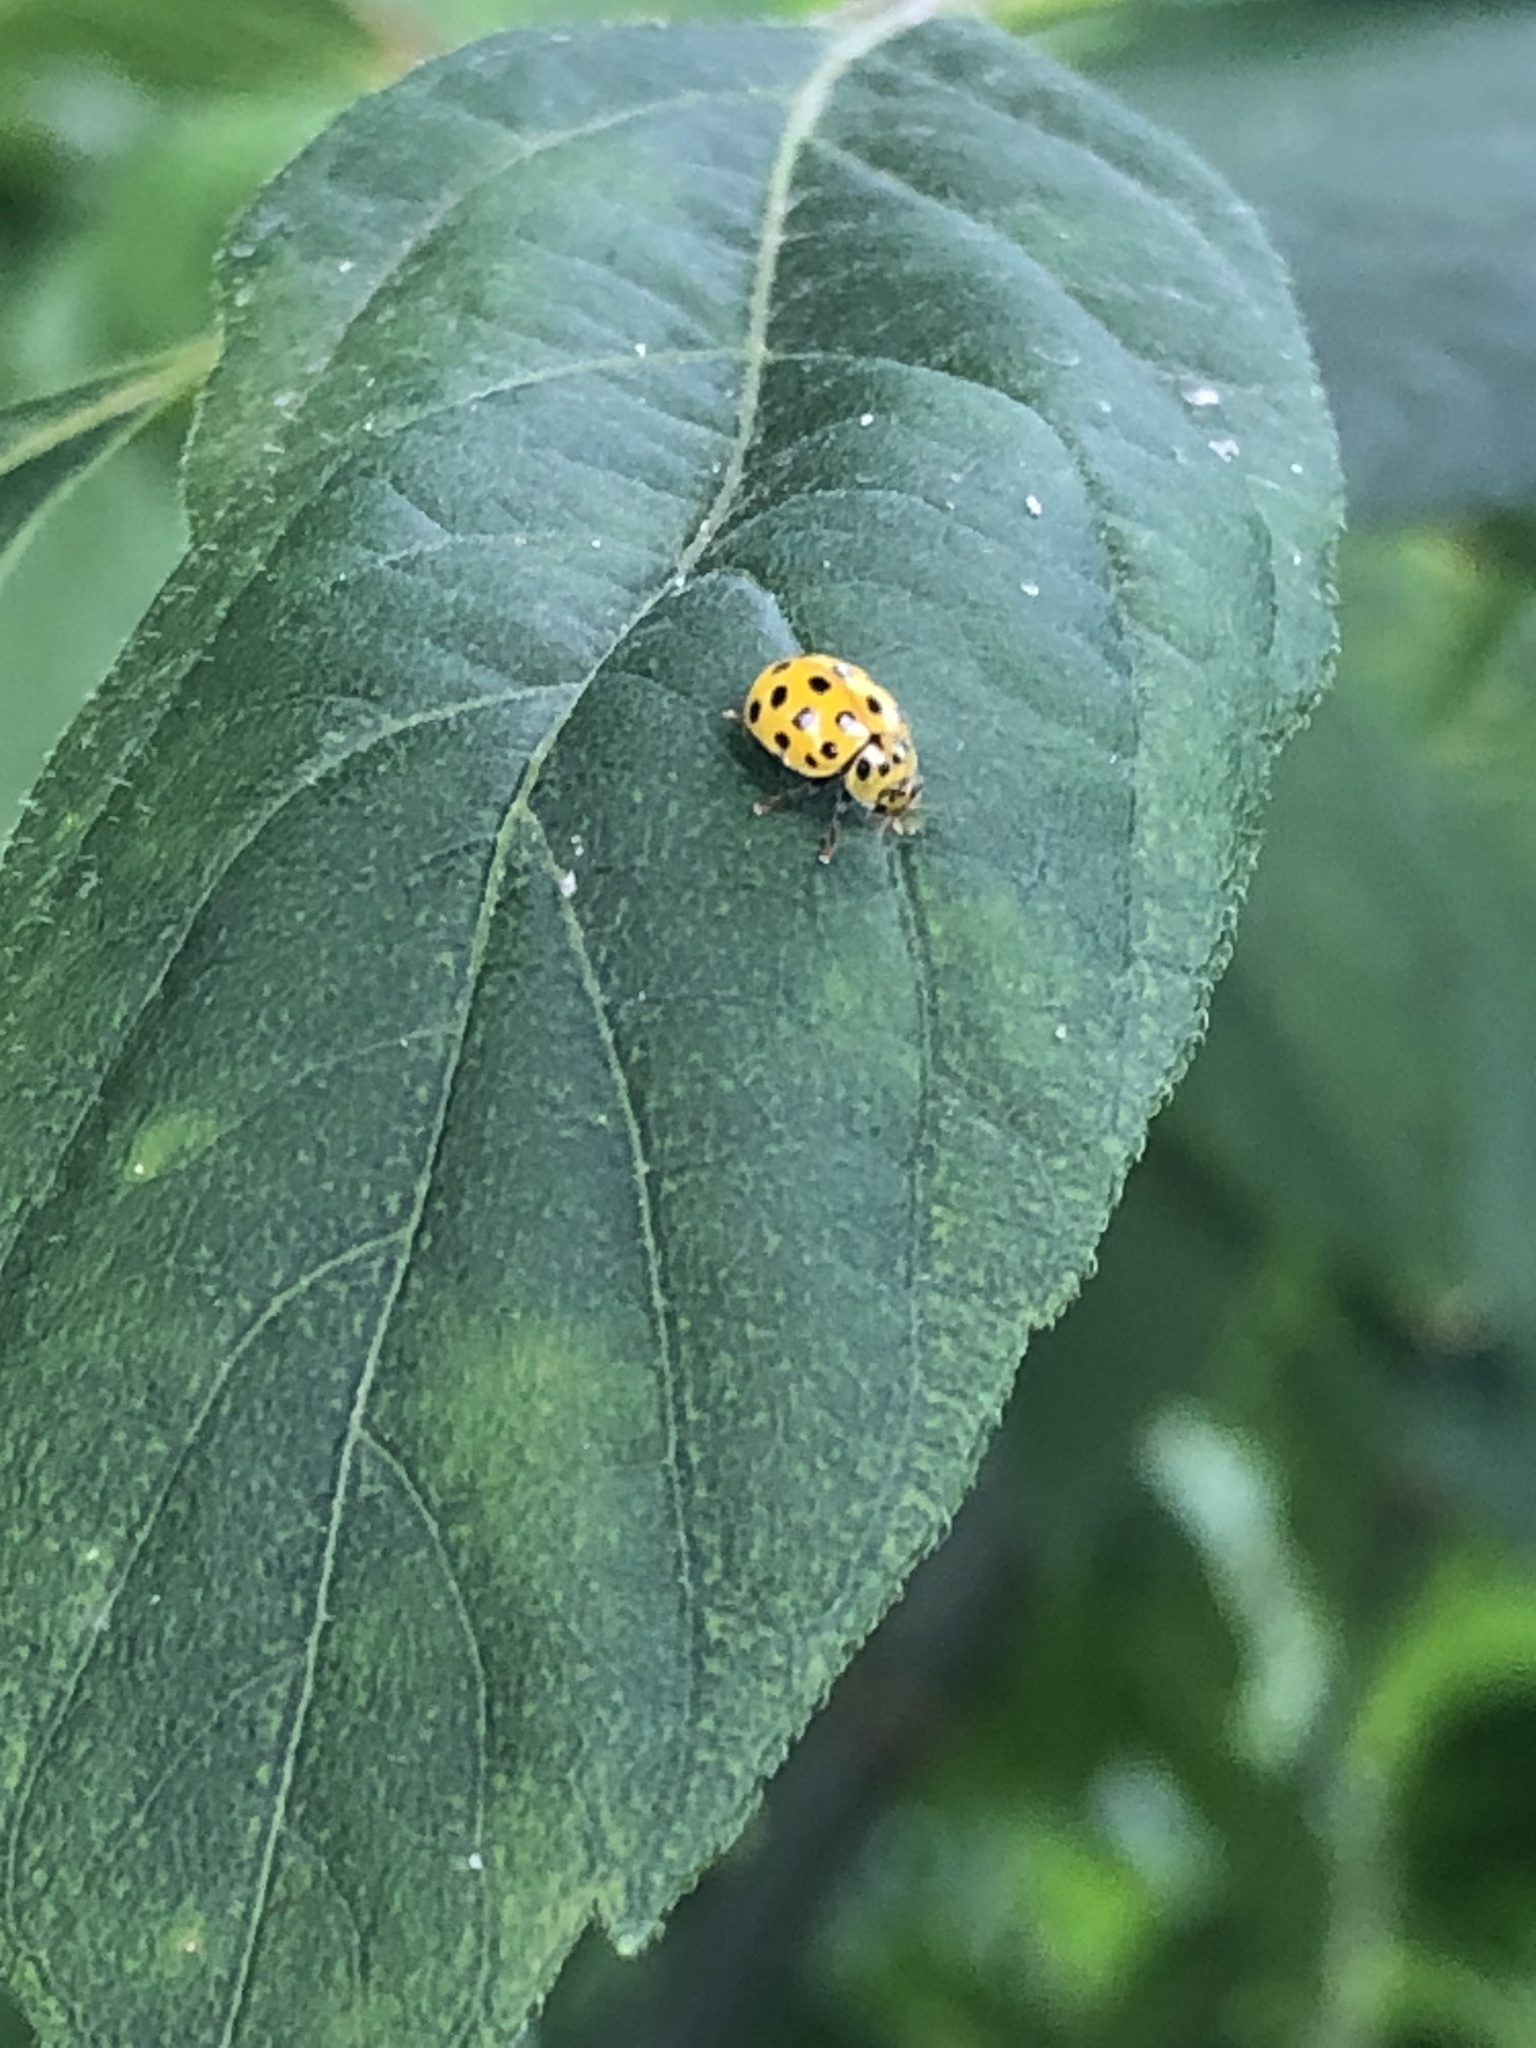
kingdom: Animalia
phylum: Arthropoda
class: Insecta
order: Coleoptera
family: Coccinellidae
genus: Psyllobora
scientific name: Psyllobora vigintiduopunctata
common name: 22-spot ladybird
